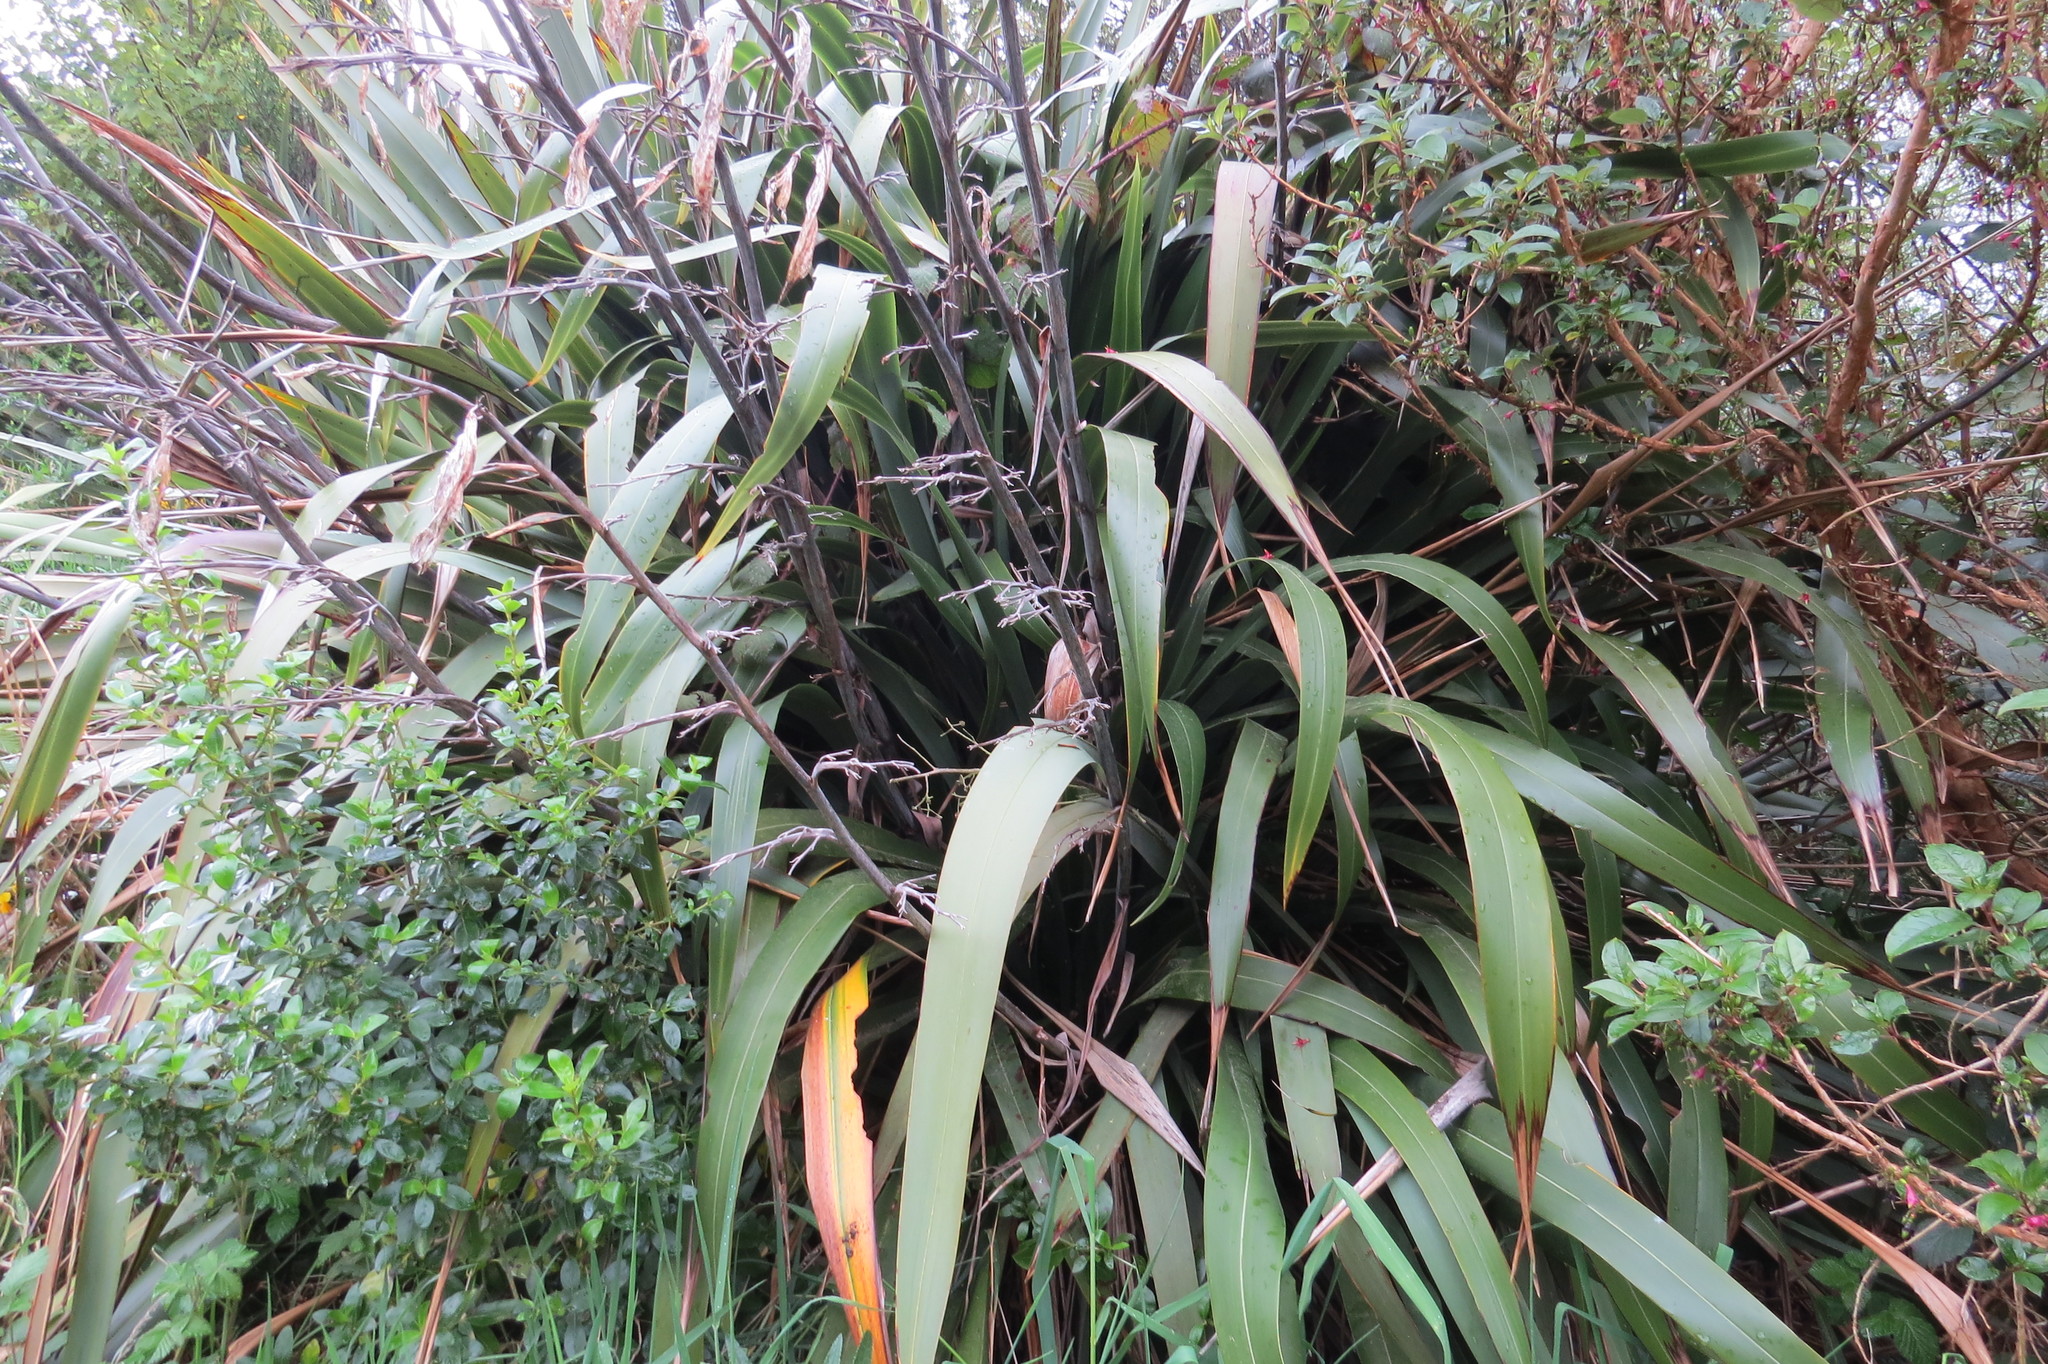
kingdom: Plantae
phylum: Tracheophyta
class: Liliopsida
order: Asparagales
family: Asphodelaceae
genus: Phormium
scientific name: Phormium colensoi
